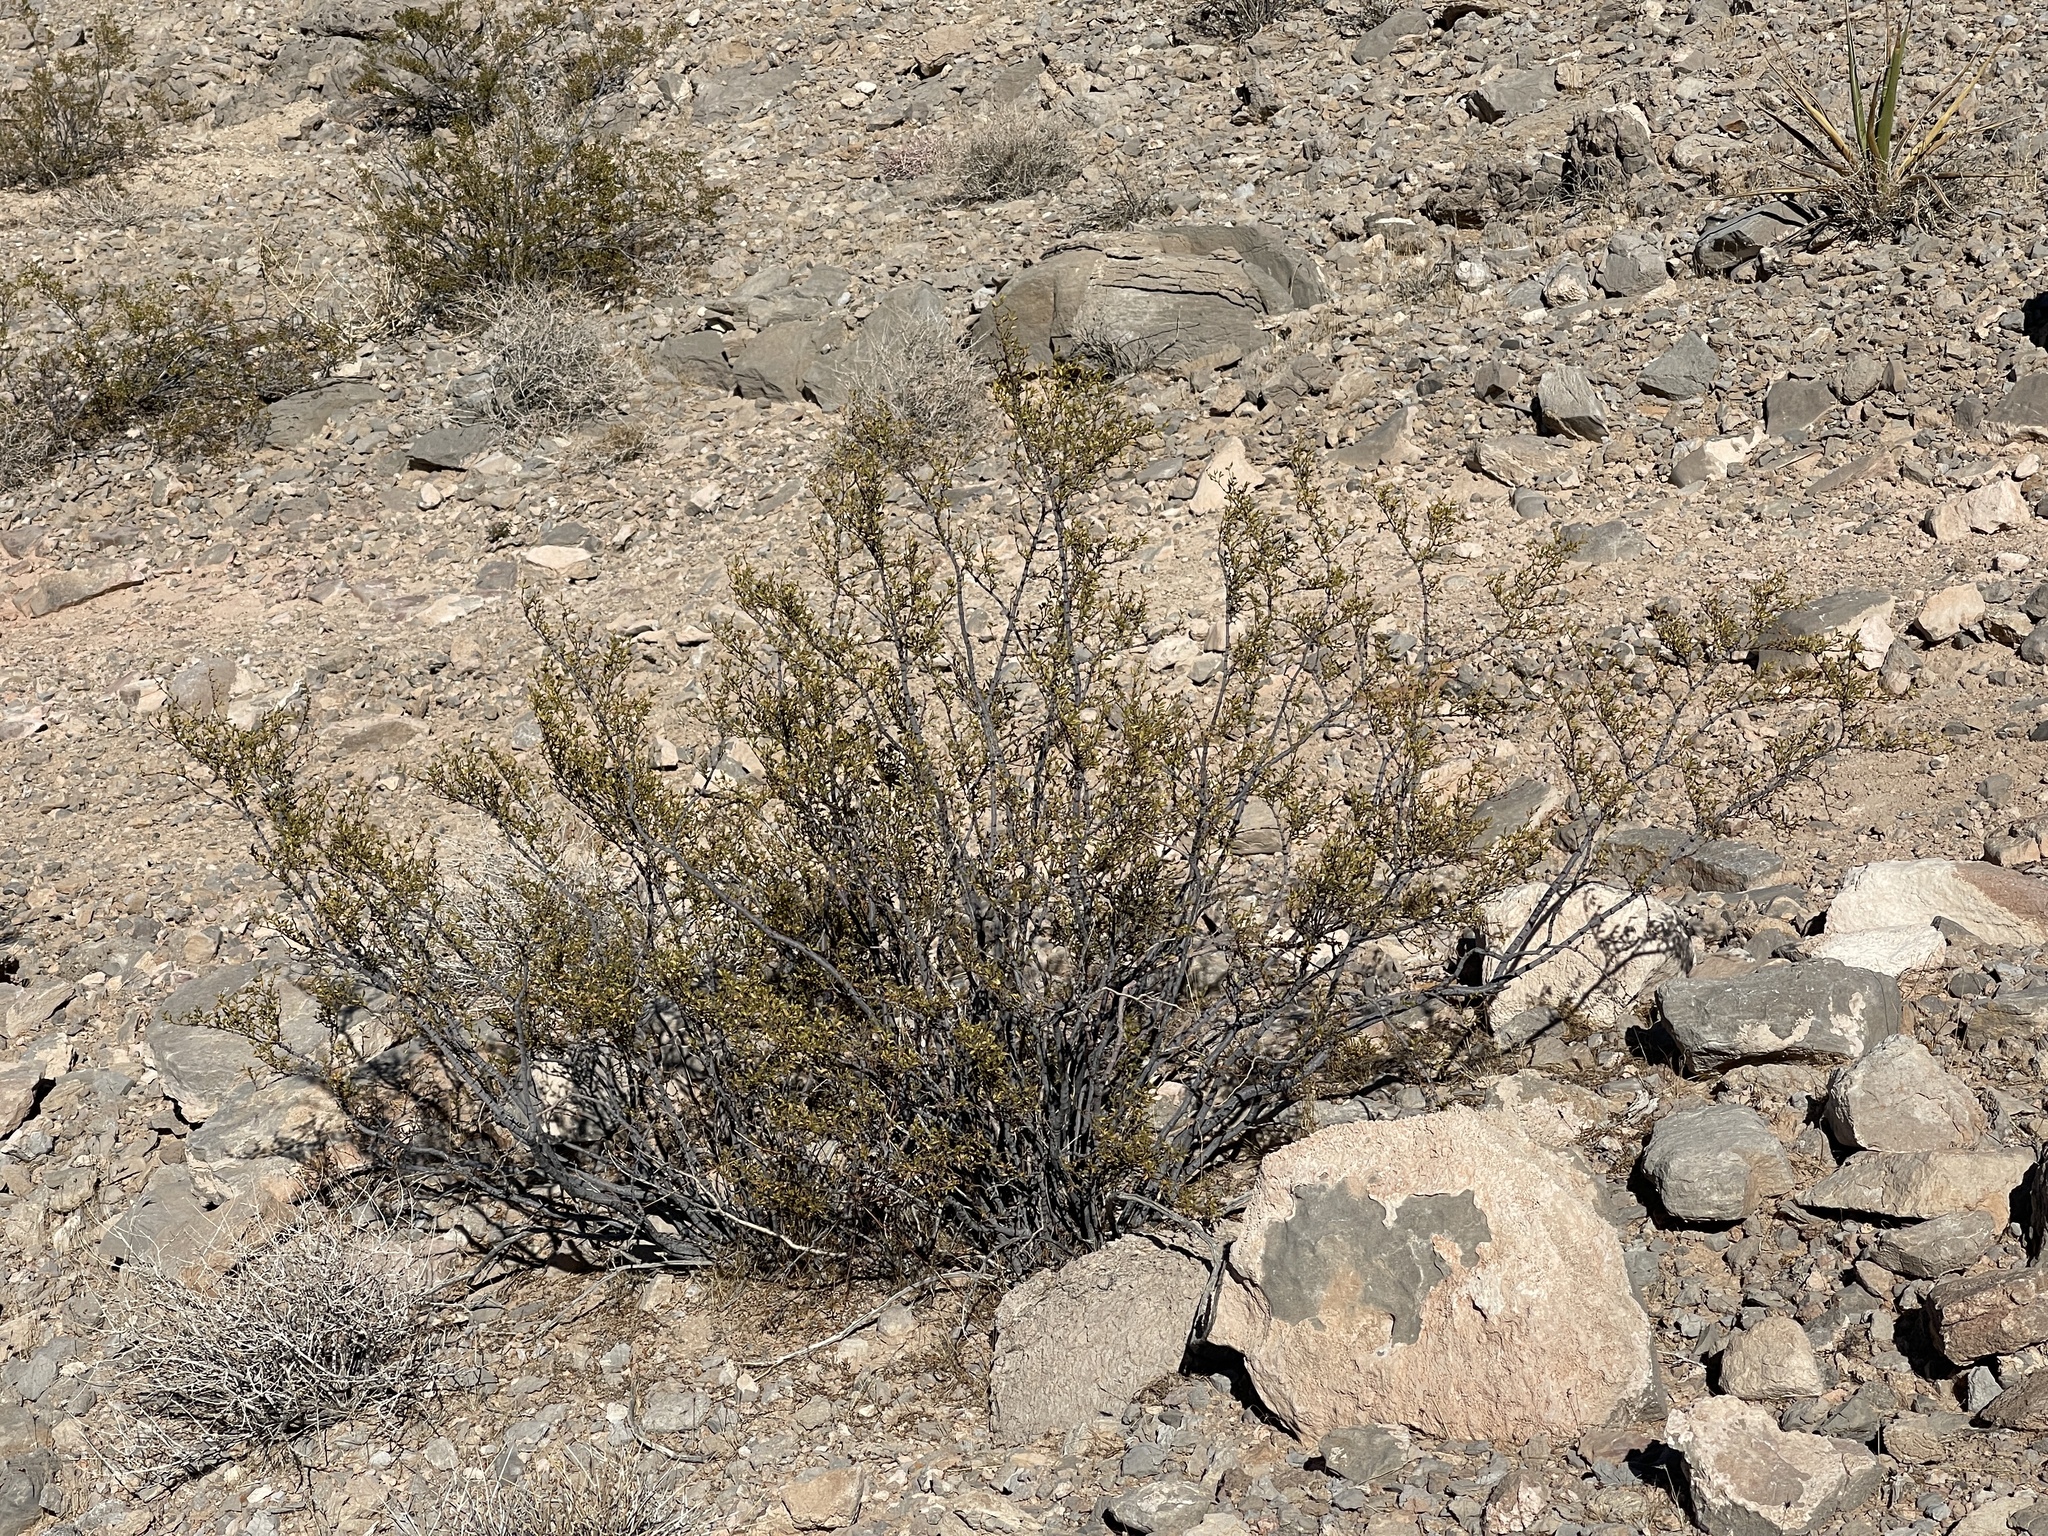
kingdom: Plantae
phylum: Tracheophyta
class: Magnoliopsida
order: Zygophyllales
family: Zygophyllaceae
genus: Larrea
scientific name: Larrea tridentata
